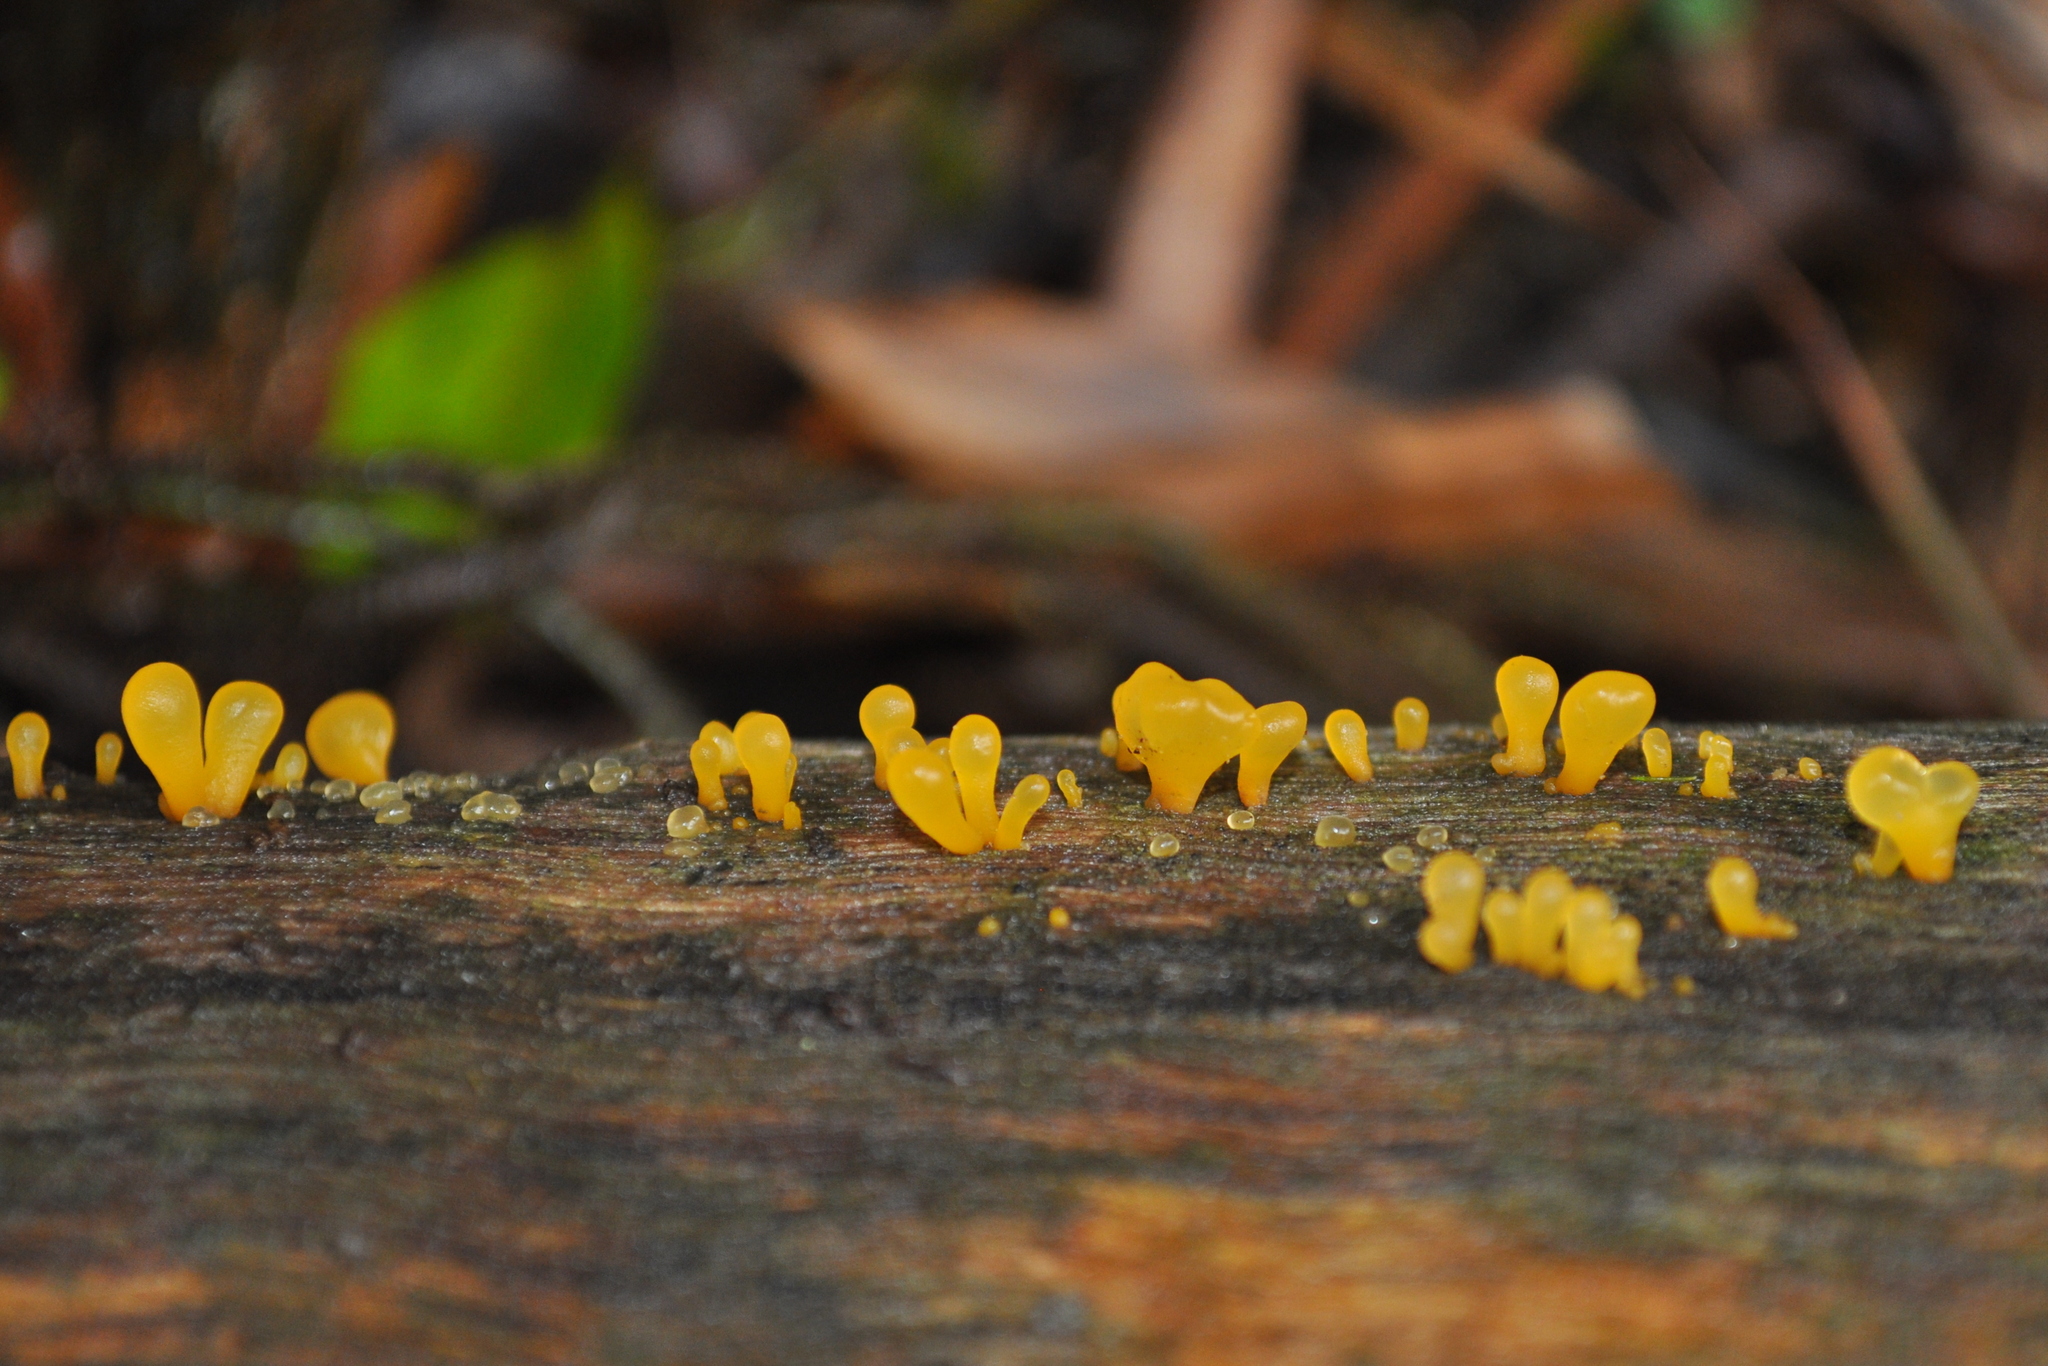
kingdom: Fungi
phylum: Basidiomycota
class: Dacrymycetes
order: Dacrymycetales
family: Dacrymycetaceae
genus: Dacrymyces
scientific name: Dacrymyces spathularius
